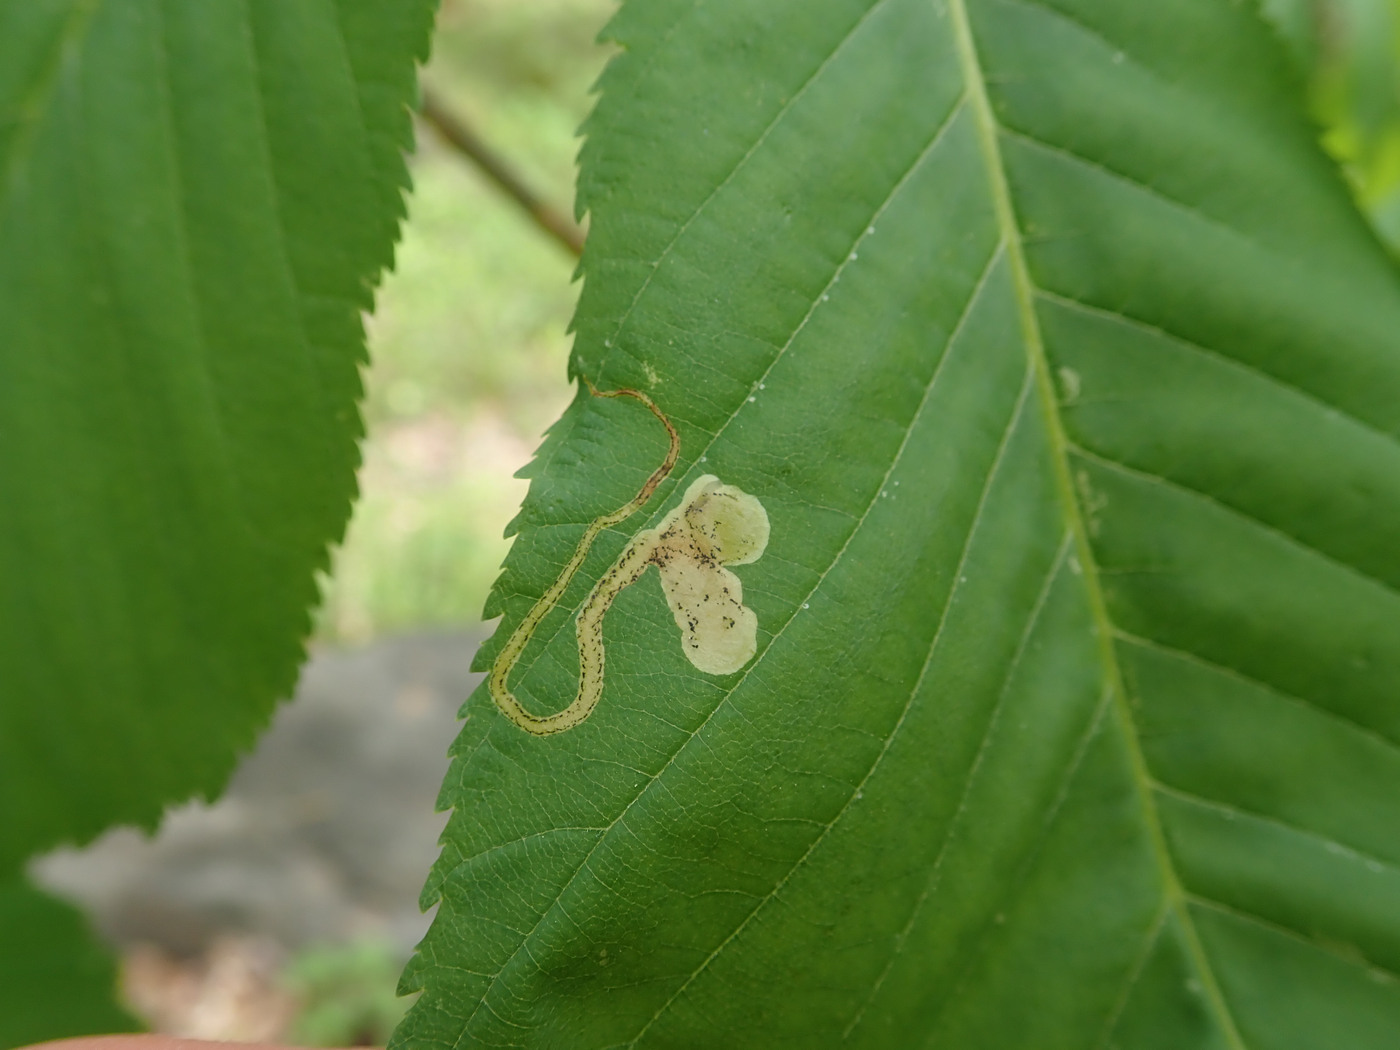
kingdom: Animalia
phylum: Arthropoda
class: Insecta
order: Diptera
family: Agromyzidae
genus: Phytomyza
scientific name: Phytomyza aesculi
